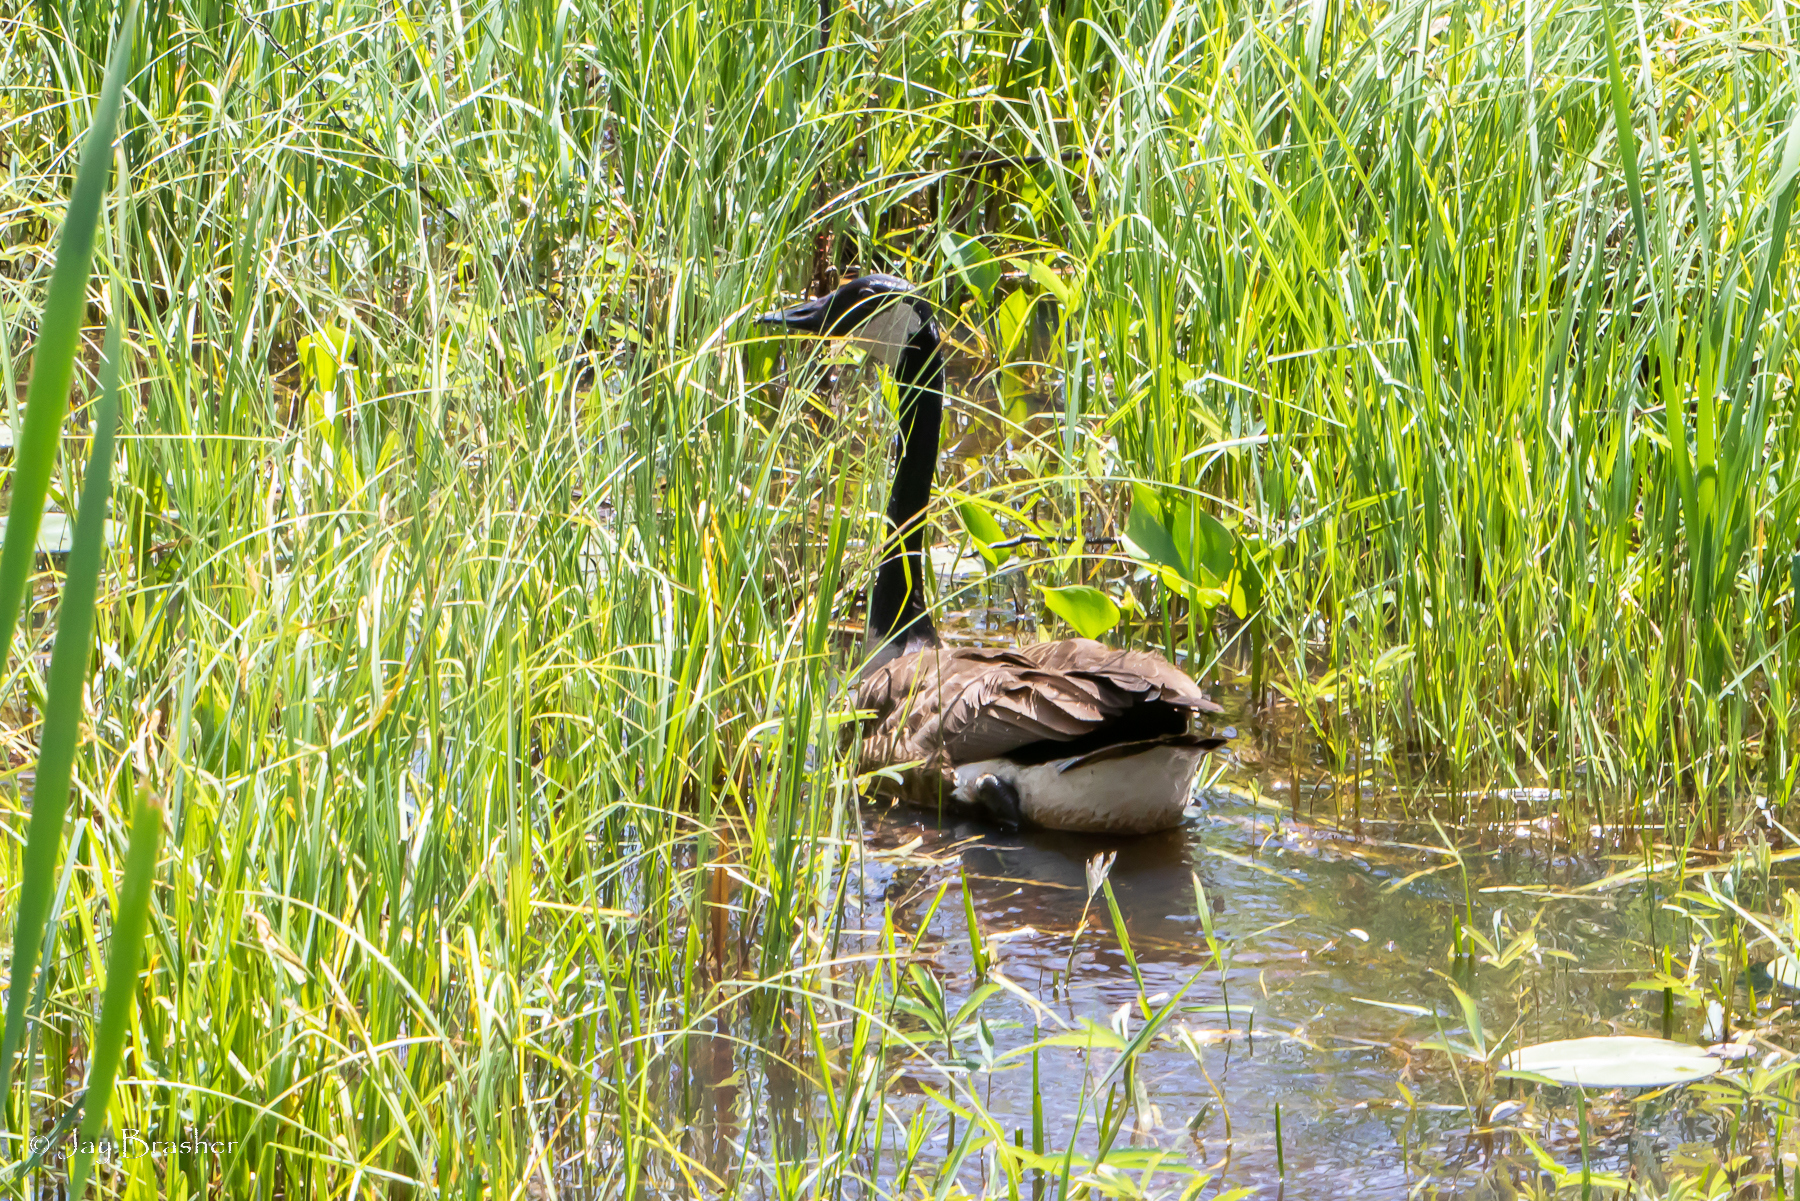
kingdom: Animalia
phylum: Chordata
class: Aves
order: Anseriformes
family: Anatidae
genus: Branta
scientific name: Branta canadensis
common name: Canada goose
